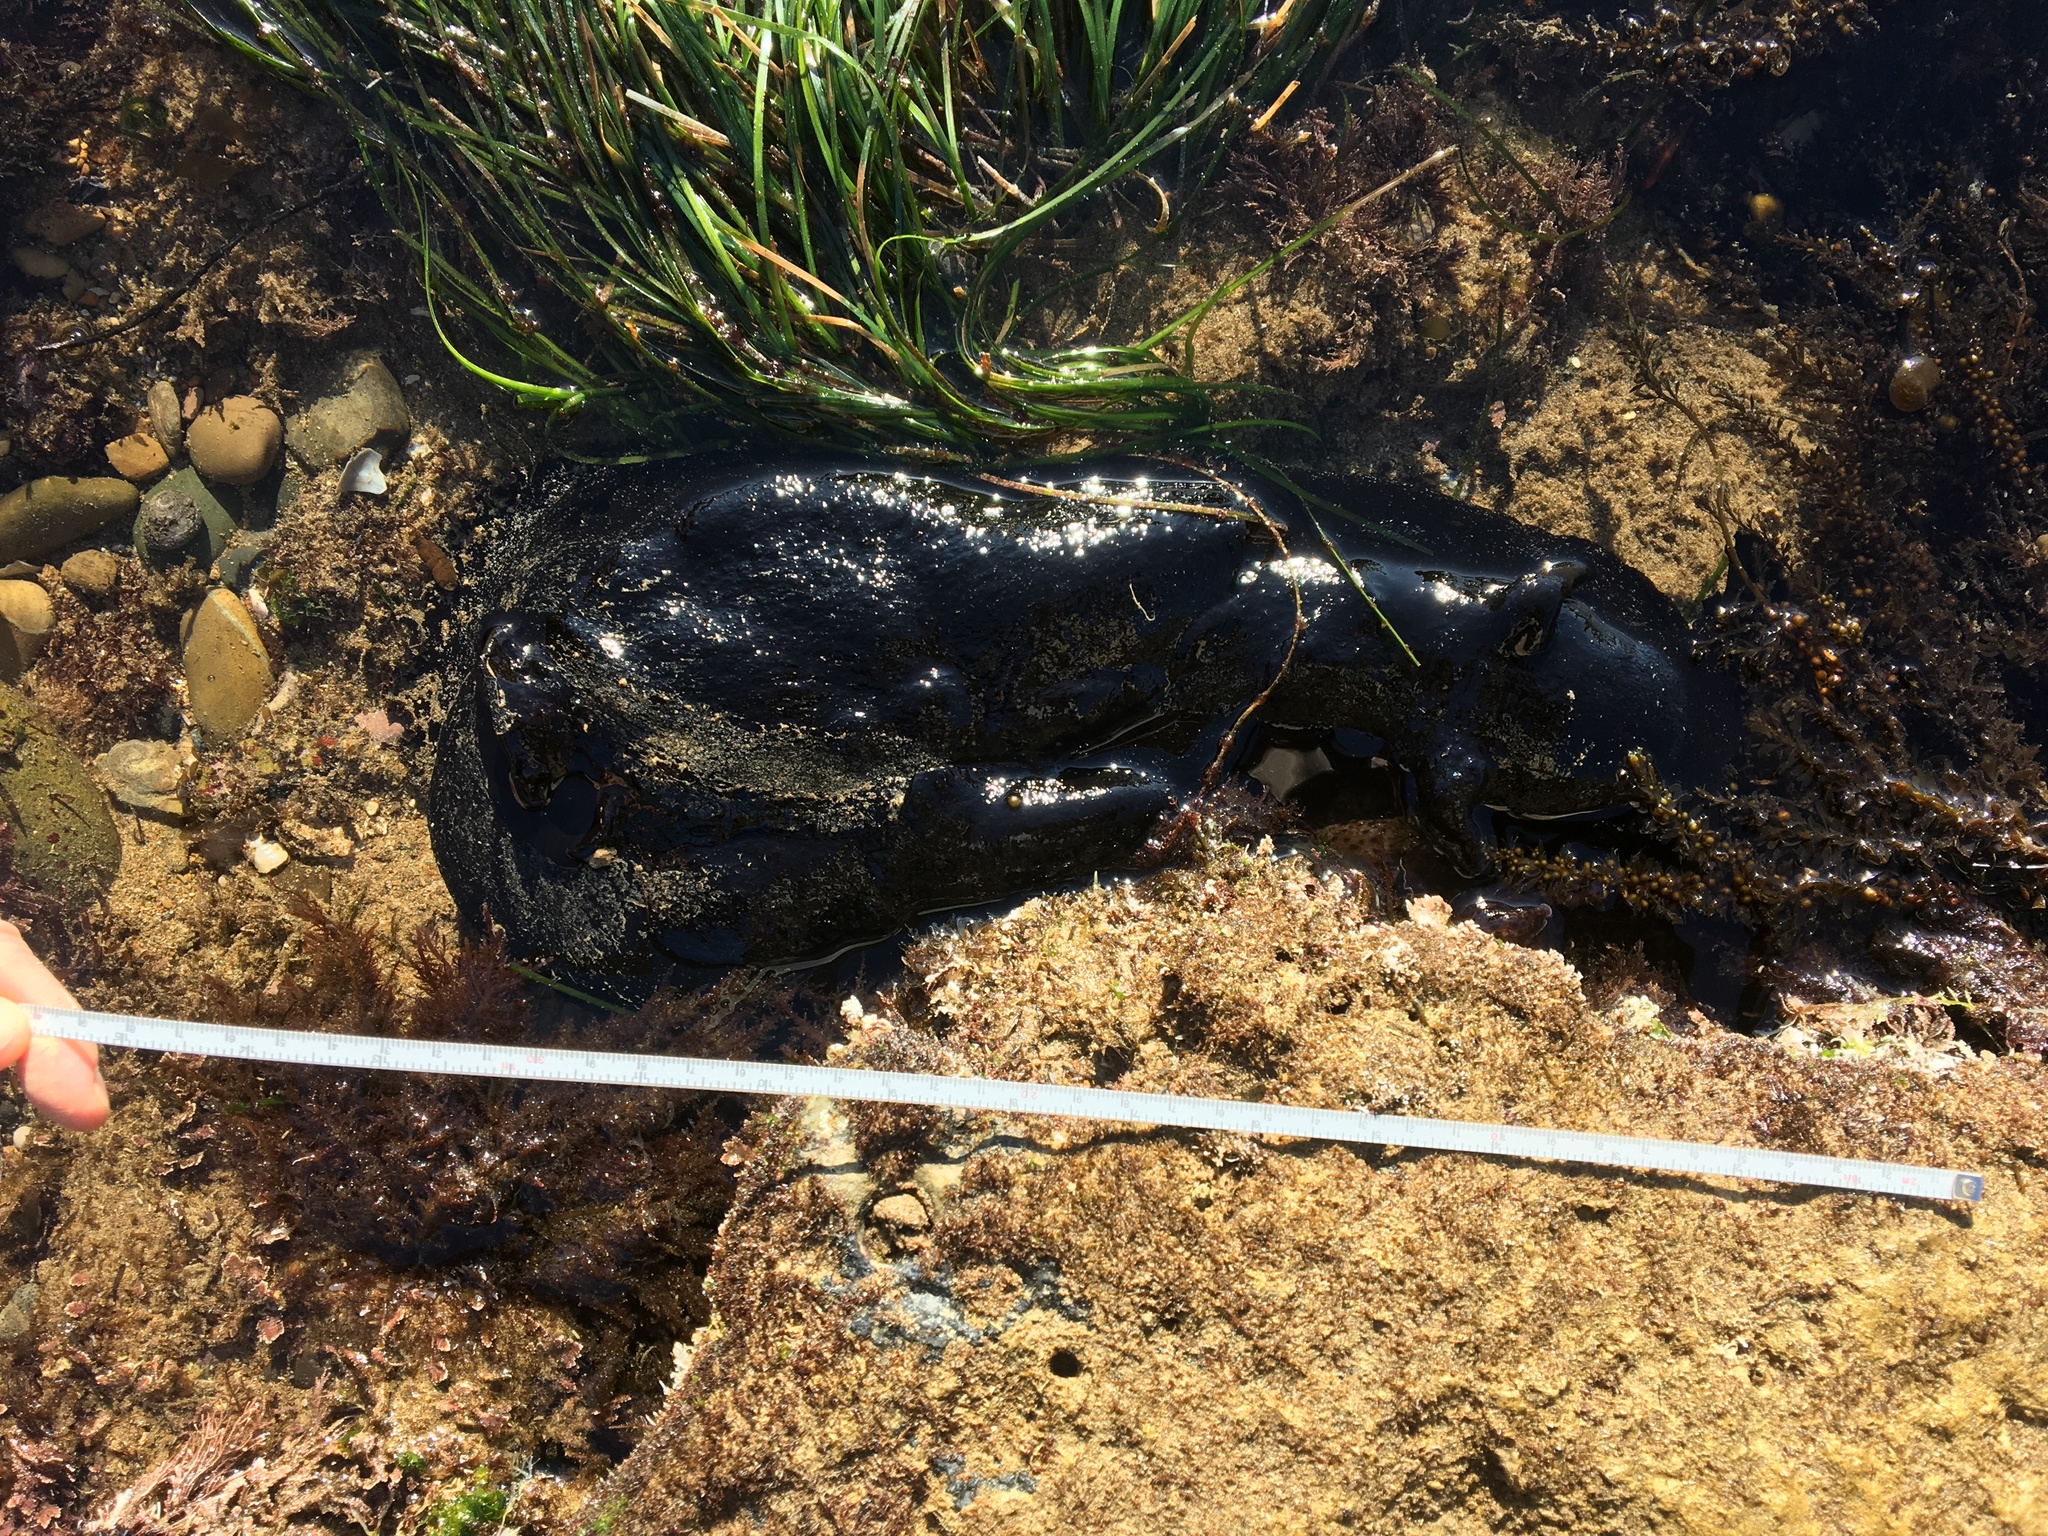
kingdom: Animalia
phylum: Mollusca
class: Gastropoda
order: Aplysiida
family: Aplysiidae
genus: Aplysia
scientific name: Aplysia vaccaria
